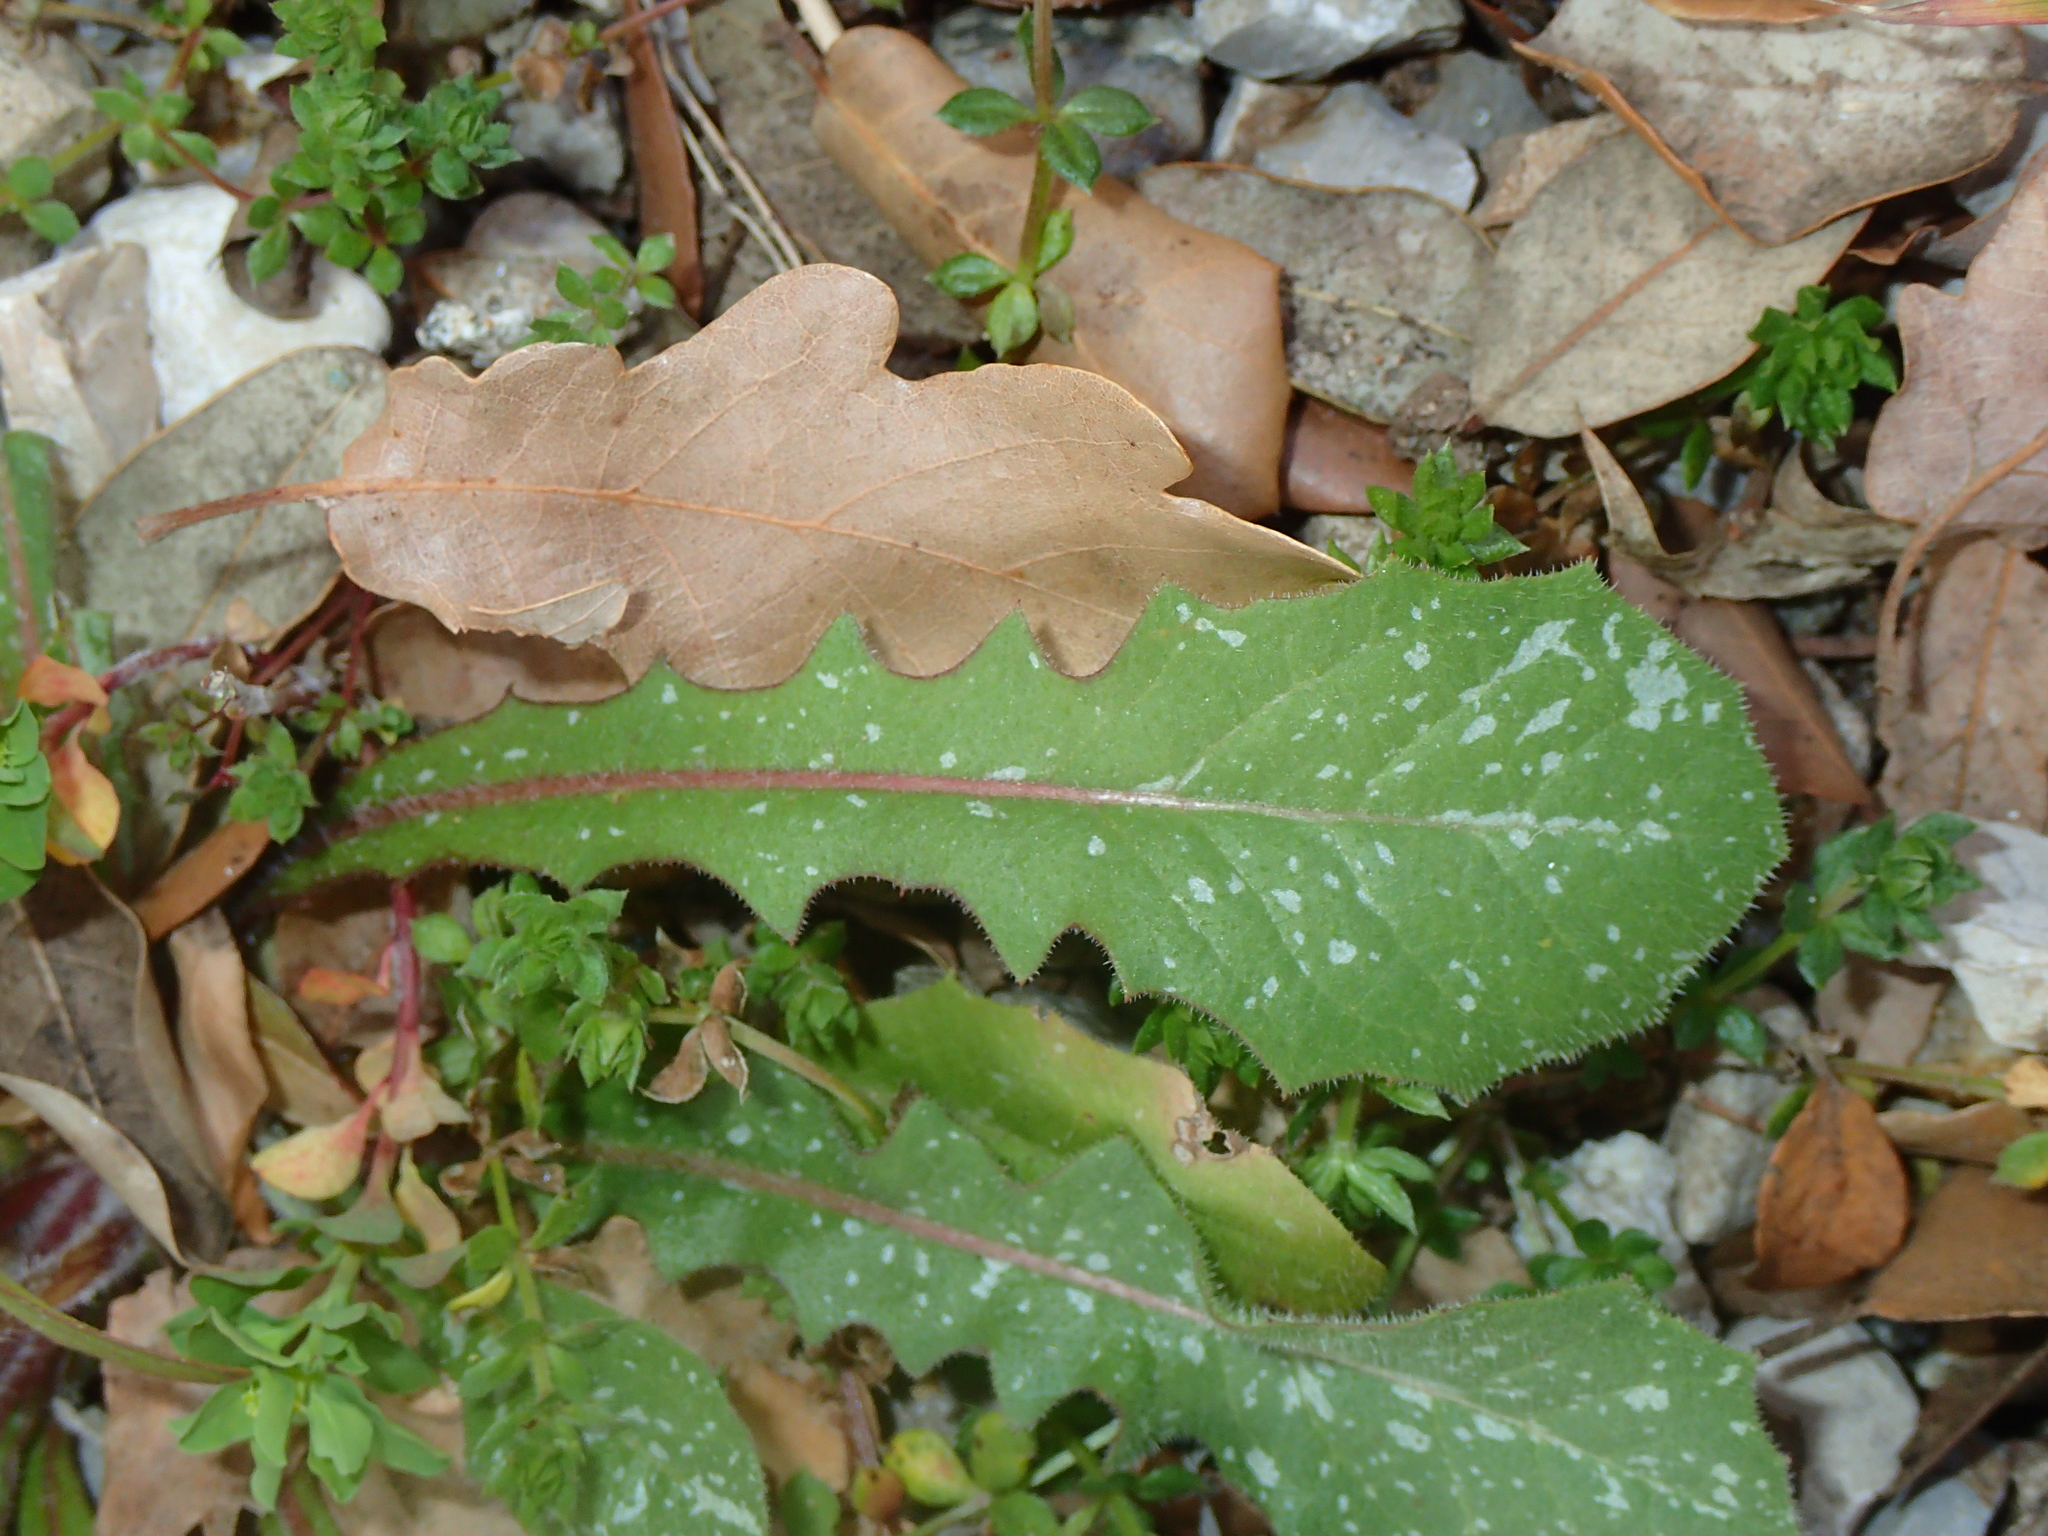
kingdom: Plantae
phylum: Tracheophyta
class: Magnoliopsida
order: Asterales
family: Asteraceae
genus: Crepis
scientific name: Crepis sancta
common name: Hawk's-beard
